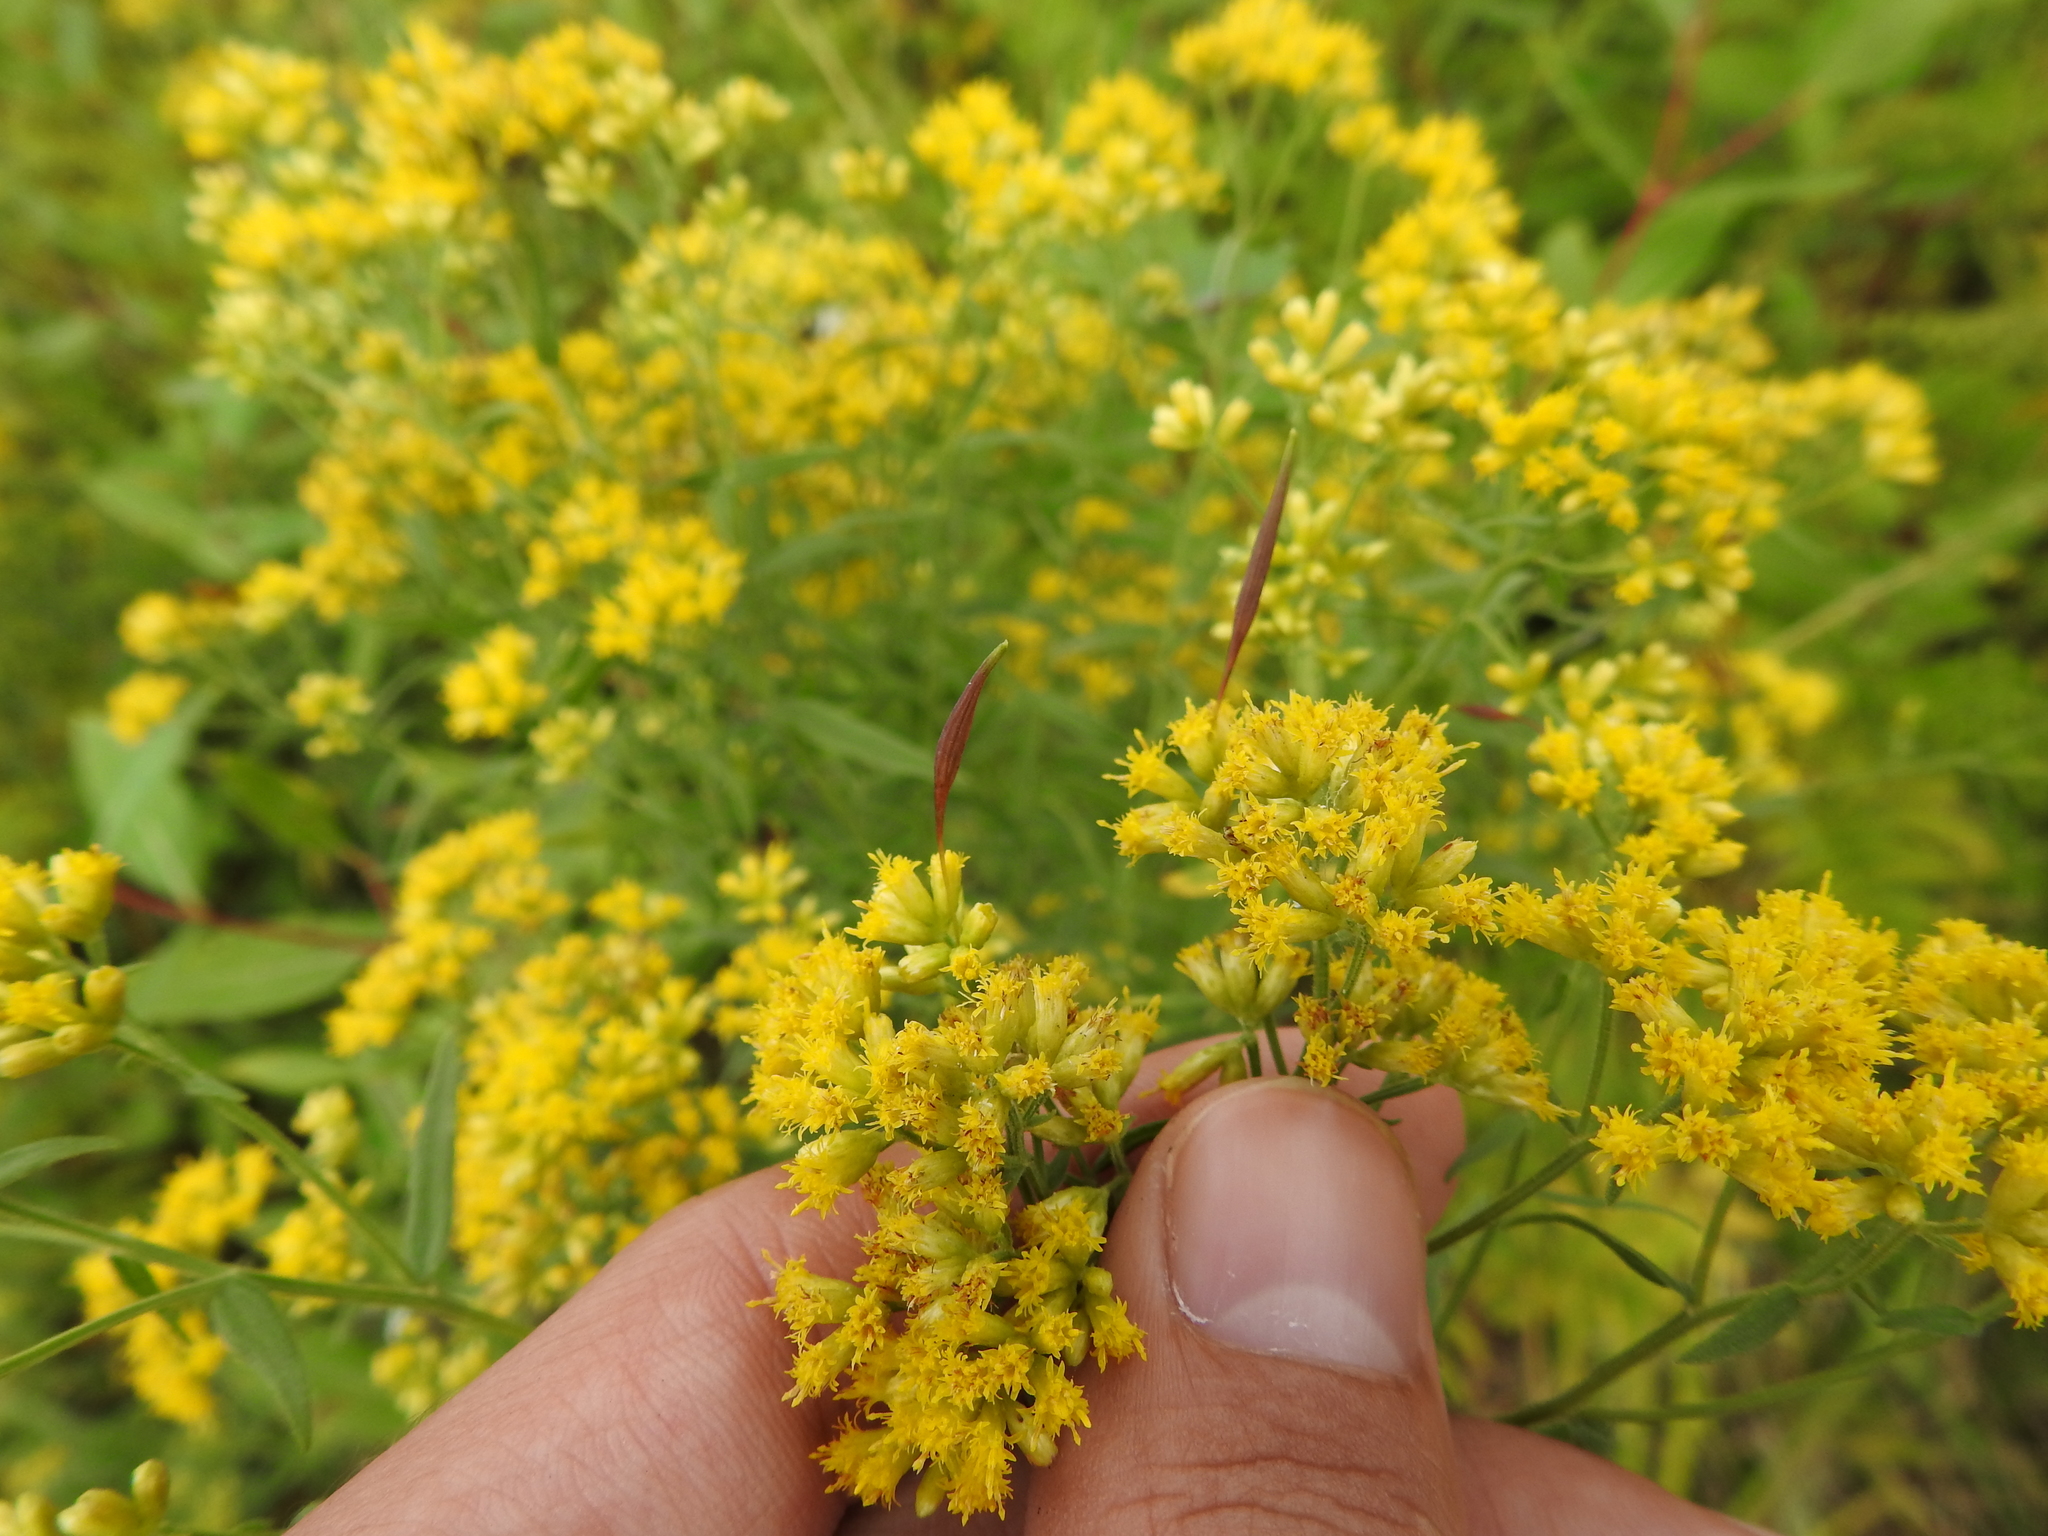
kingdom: Animalia
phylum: Arthropoda
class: Insecta
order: Diptera
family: Cecidomyiidae
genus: Rhopalomyia
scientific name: Rhopalomyia pedicellata
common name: Goldentop pedicellate gall midge
